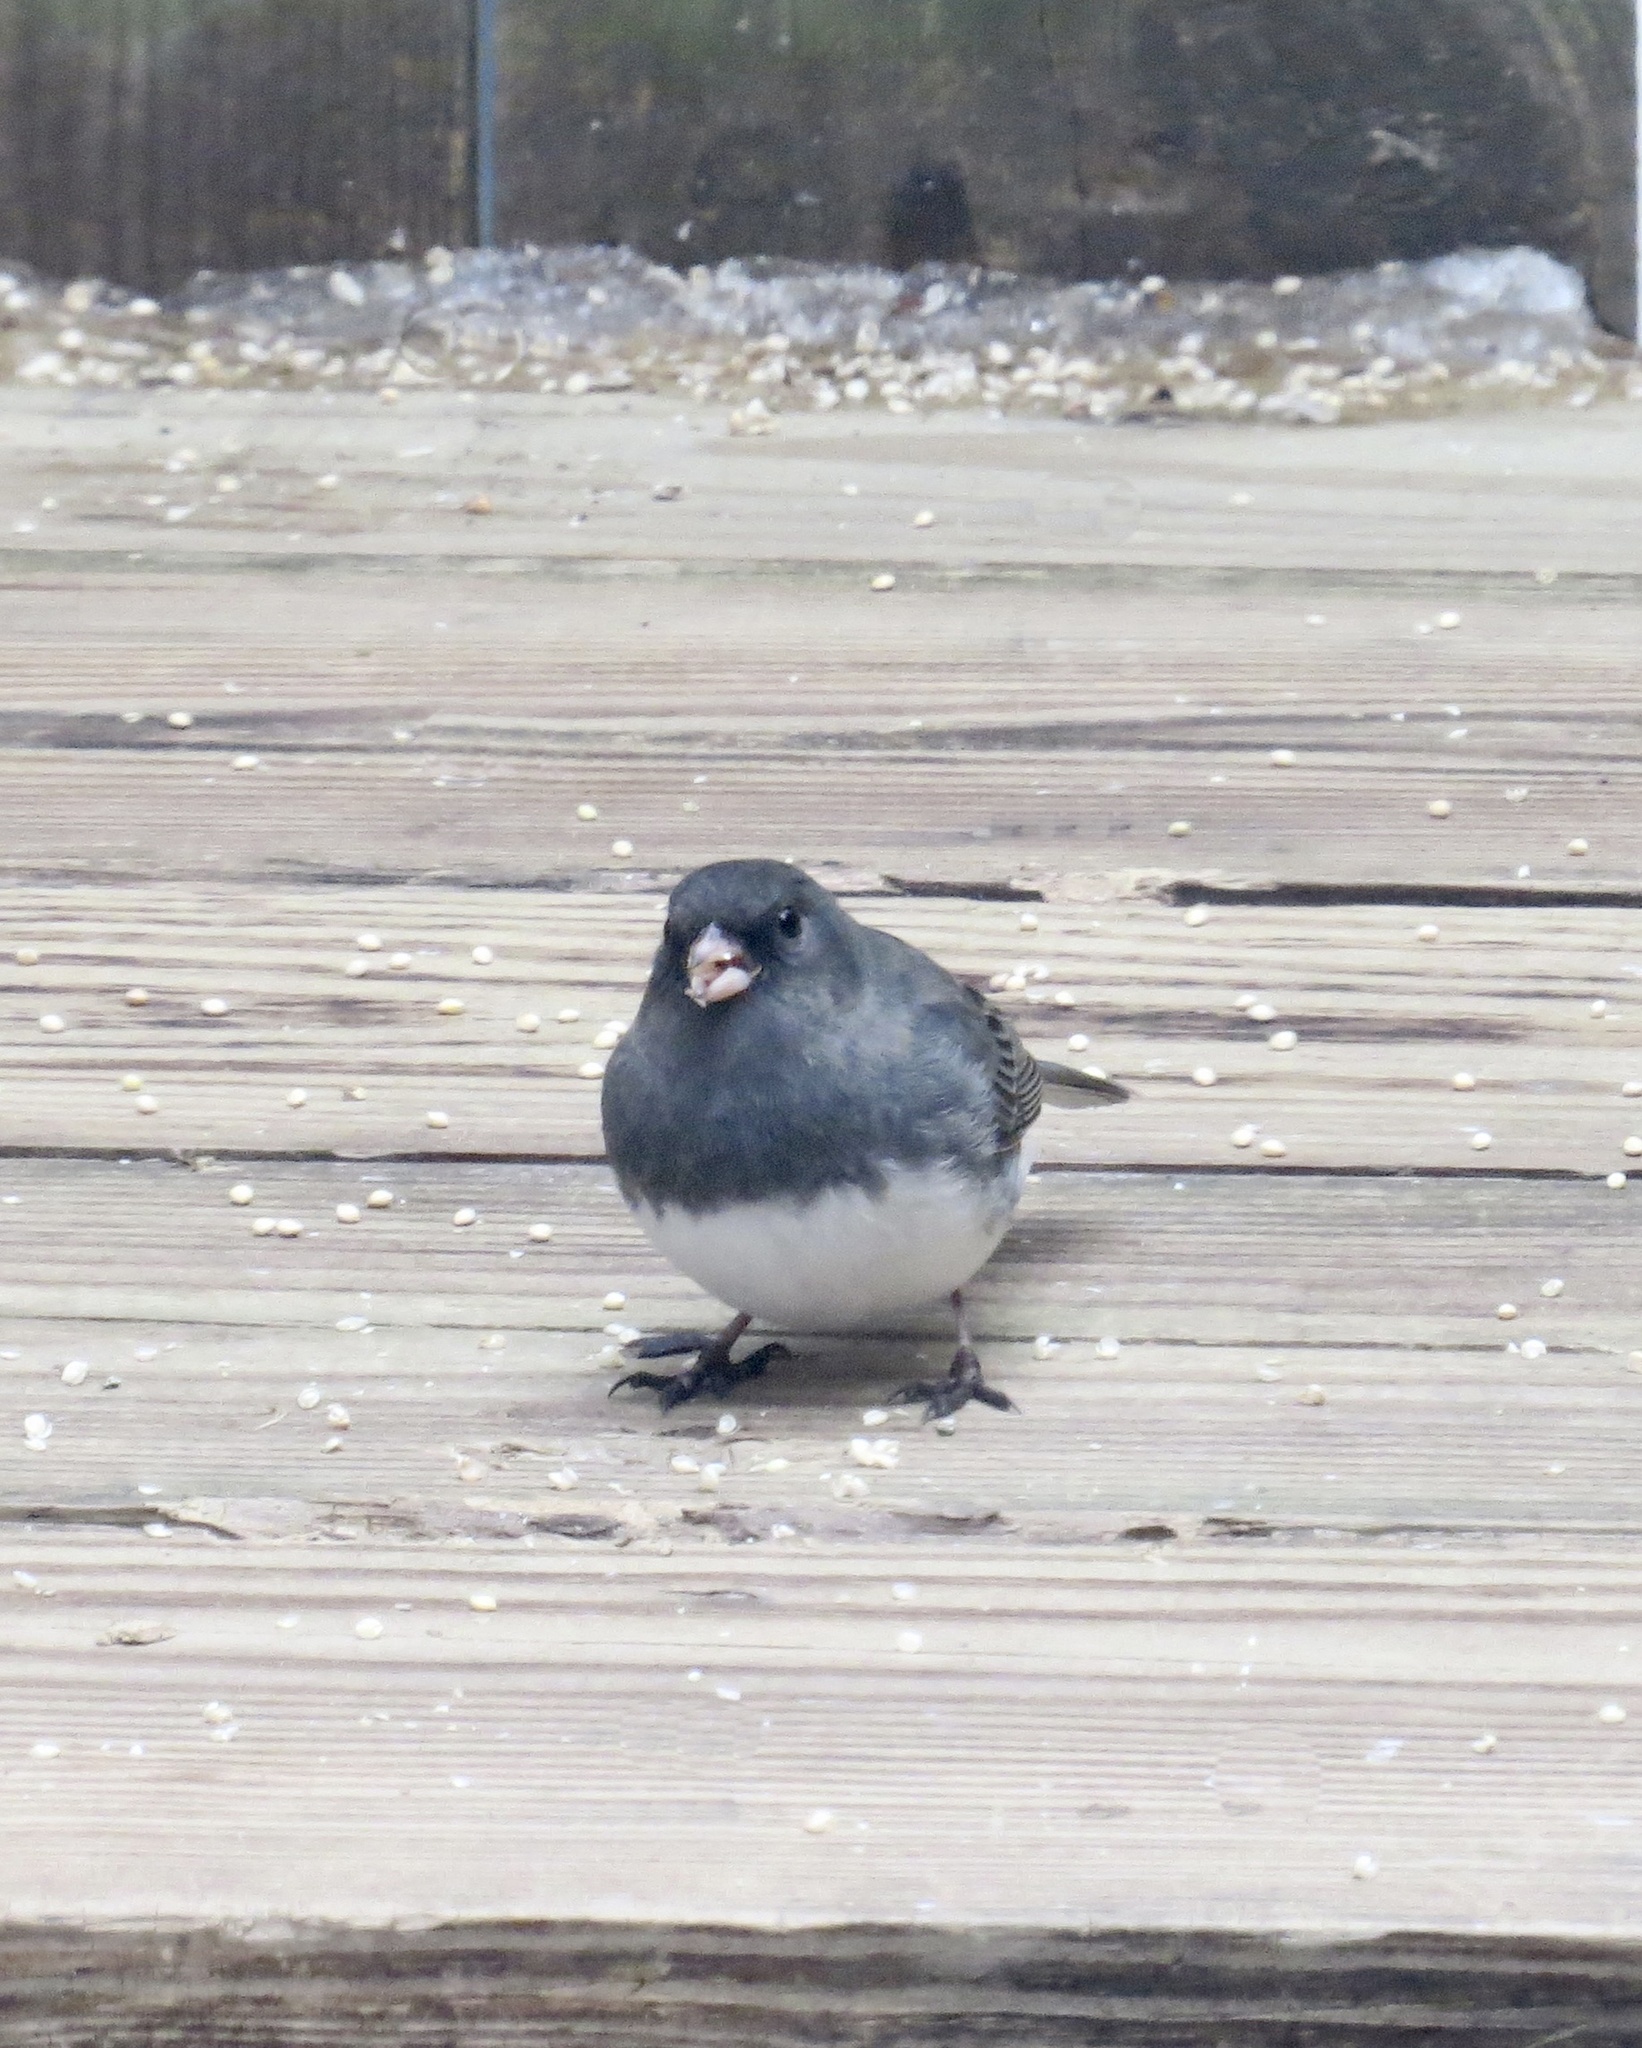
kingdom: Animalia
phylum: Chordata
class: Aves
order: Passeriformes
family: Passerellidae
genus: Junco
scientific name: Junco hyemalis
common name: Dark-eyed junco
